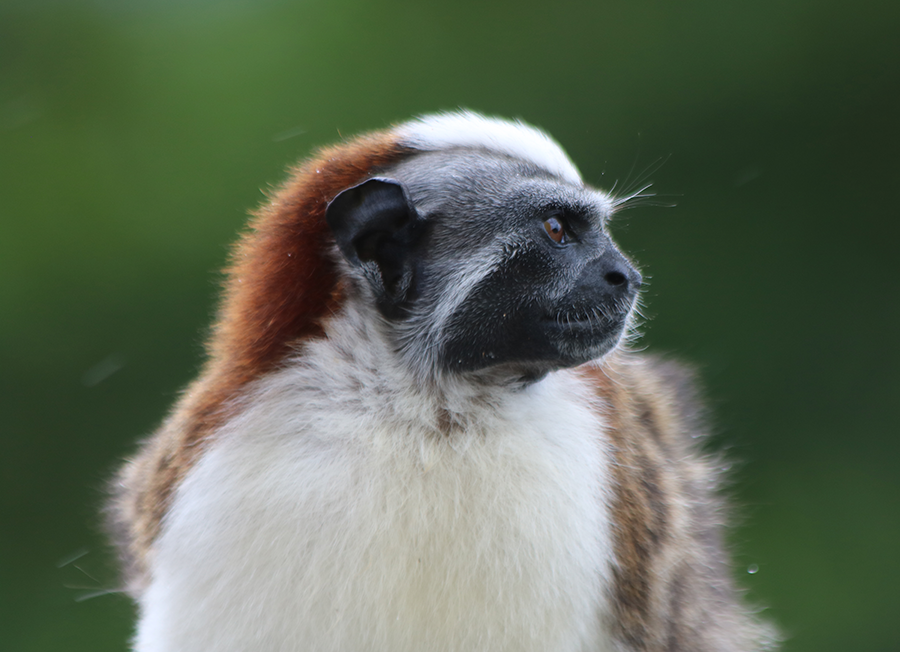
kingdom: Animalia
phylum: Chordata
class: Mammalia
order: Primates
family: Callitrichidae
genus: Saguinus
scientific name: Saguinus geoffroyi
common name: Geoffroy s tamarin
